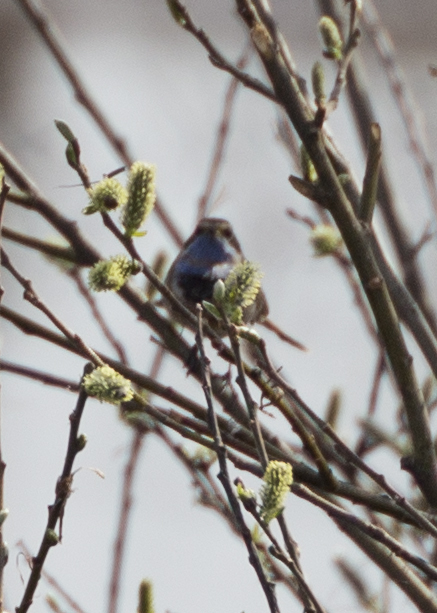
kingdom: Animalia
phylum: Chordata
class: Aves
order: Passeriformes
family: Muscicapidae
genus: Luscinia
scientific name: Luscinia svecica
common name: Bluethroat
